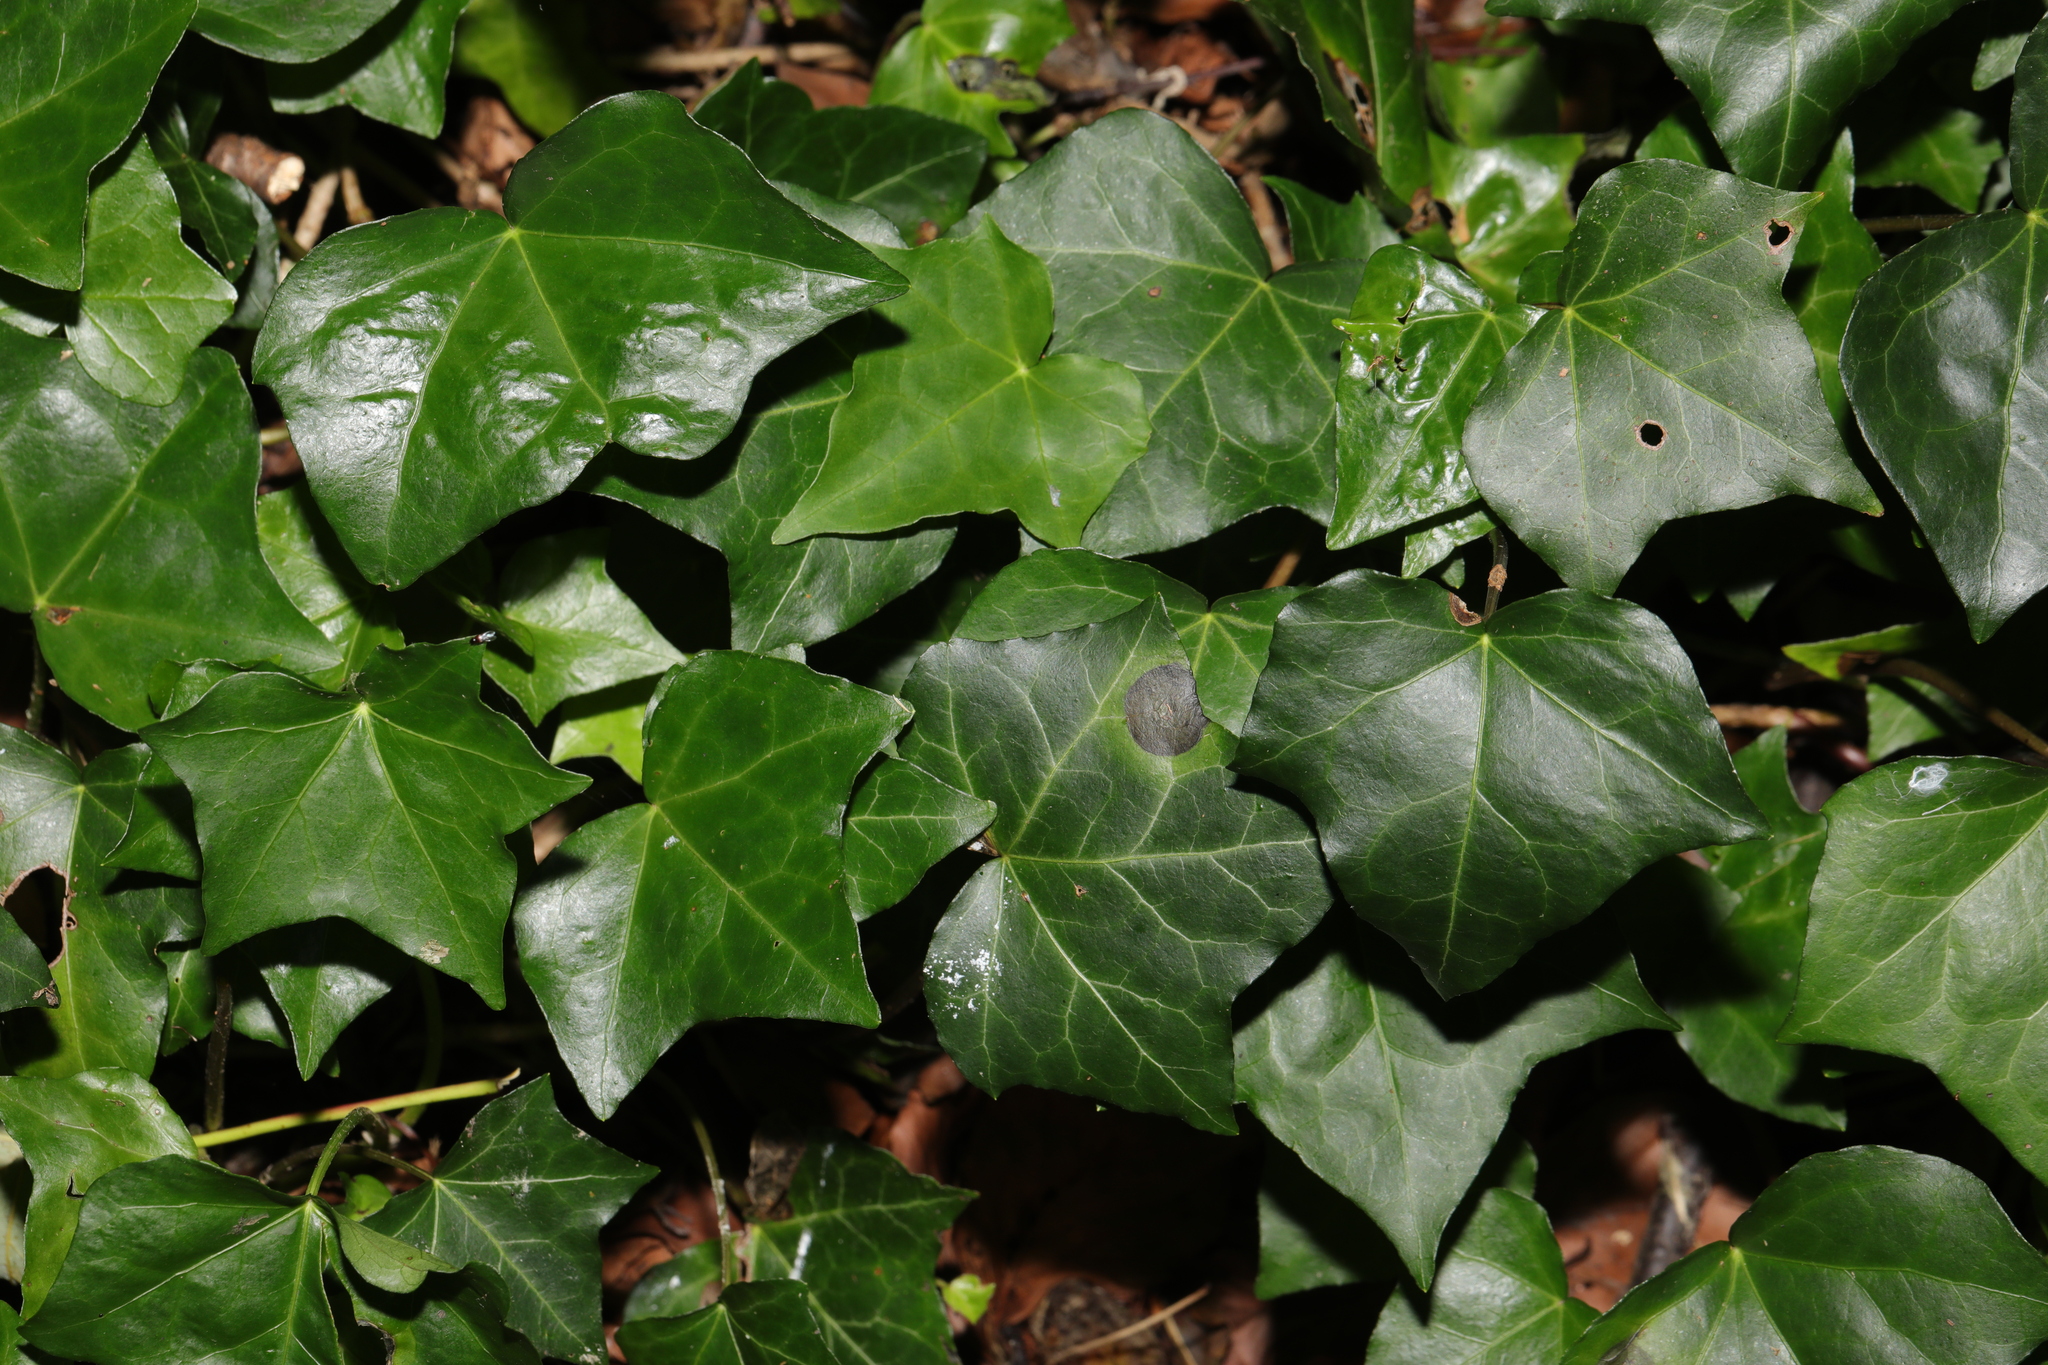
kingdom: Plantae
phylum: Tracheophyta
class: Magnoliopsida
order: Apiales
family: Araliaceae
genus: Hedera
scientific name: Hedera helix
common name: Ivy
